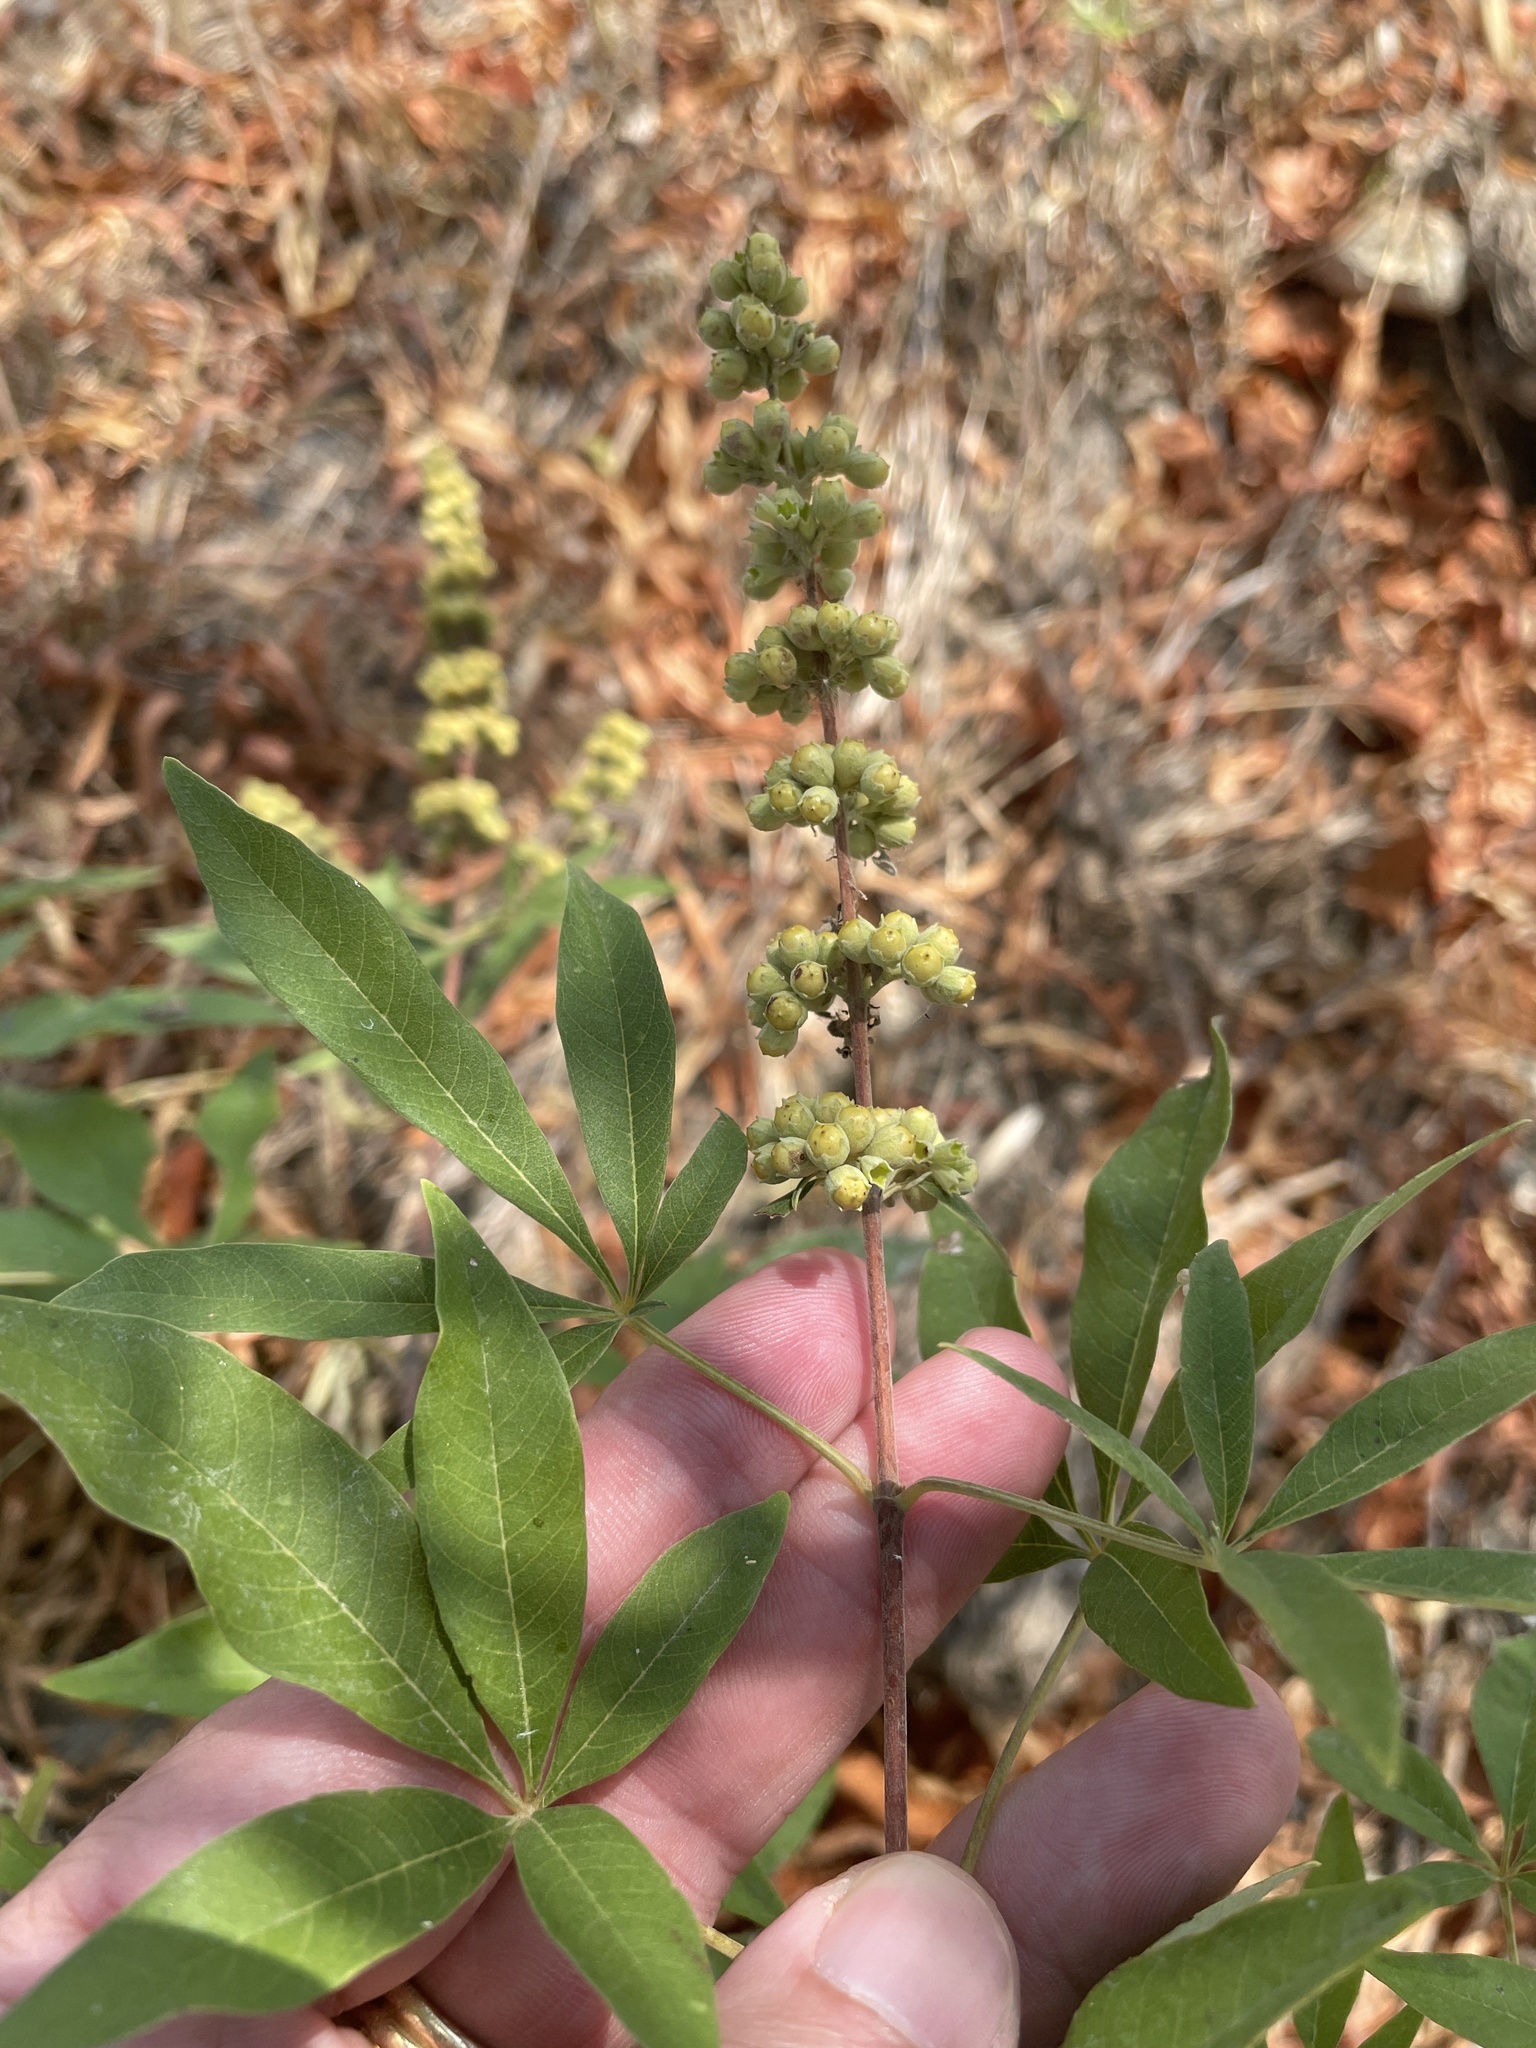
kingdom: Plantae
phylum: Tracheophyta
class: Magnoliopsida
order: Lamiales
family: Lamiaceae
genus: Vitex
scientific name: Vitex agnus-castus
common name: Chasteberry
